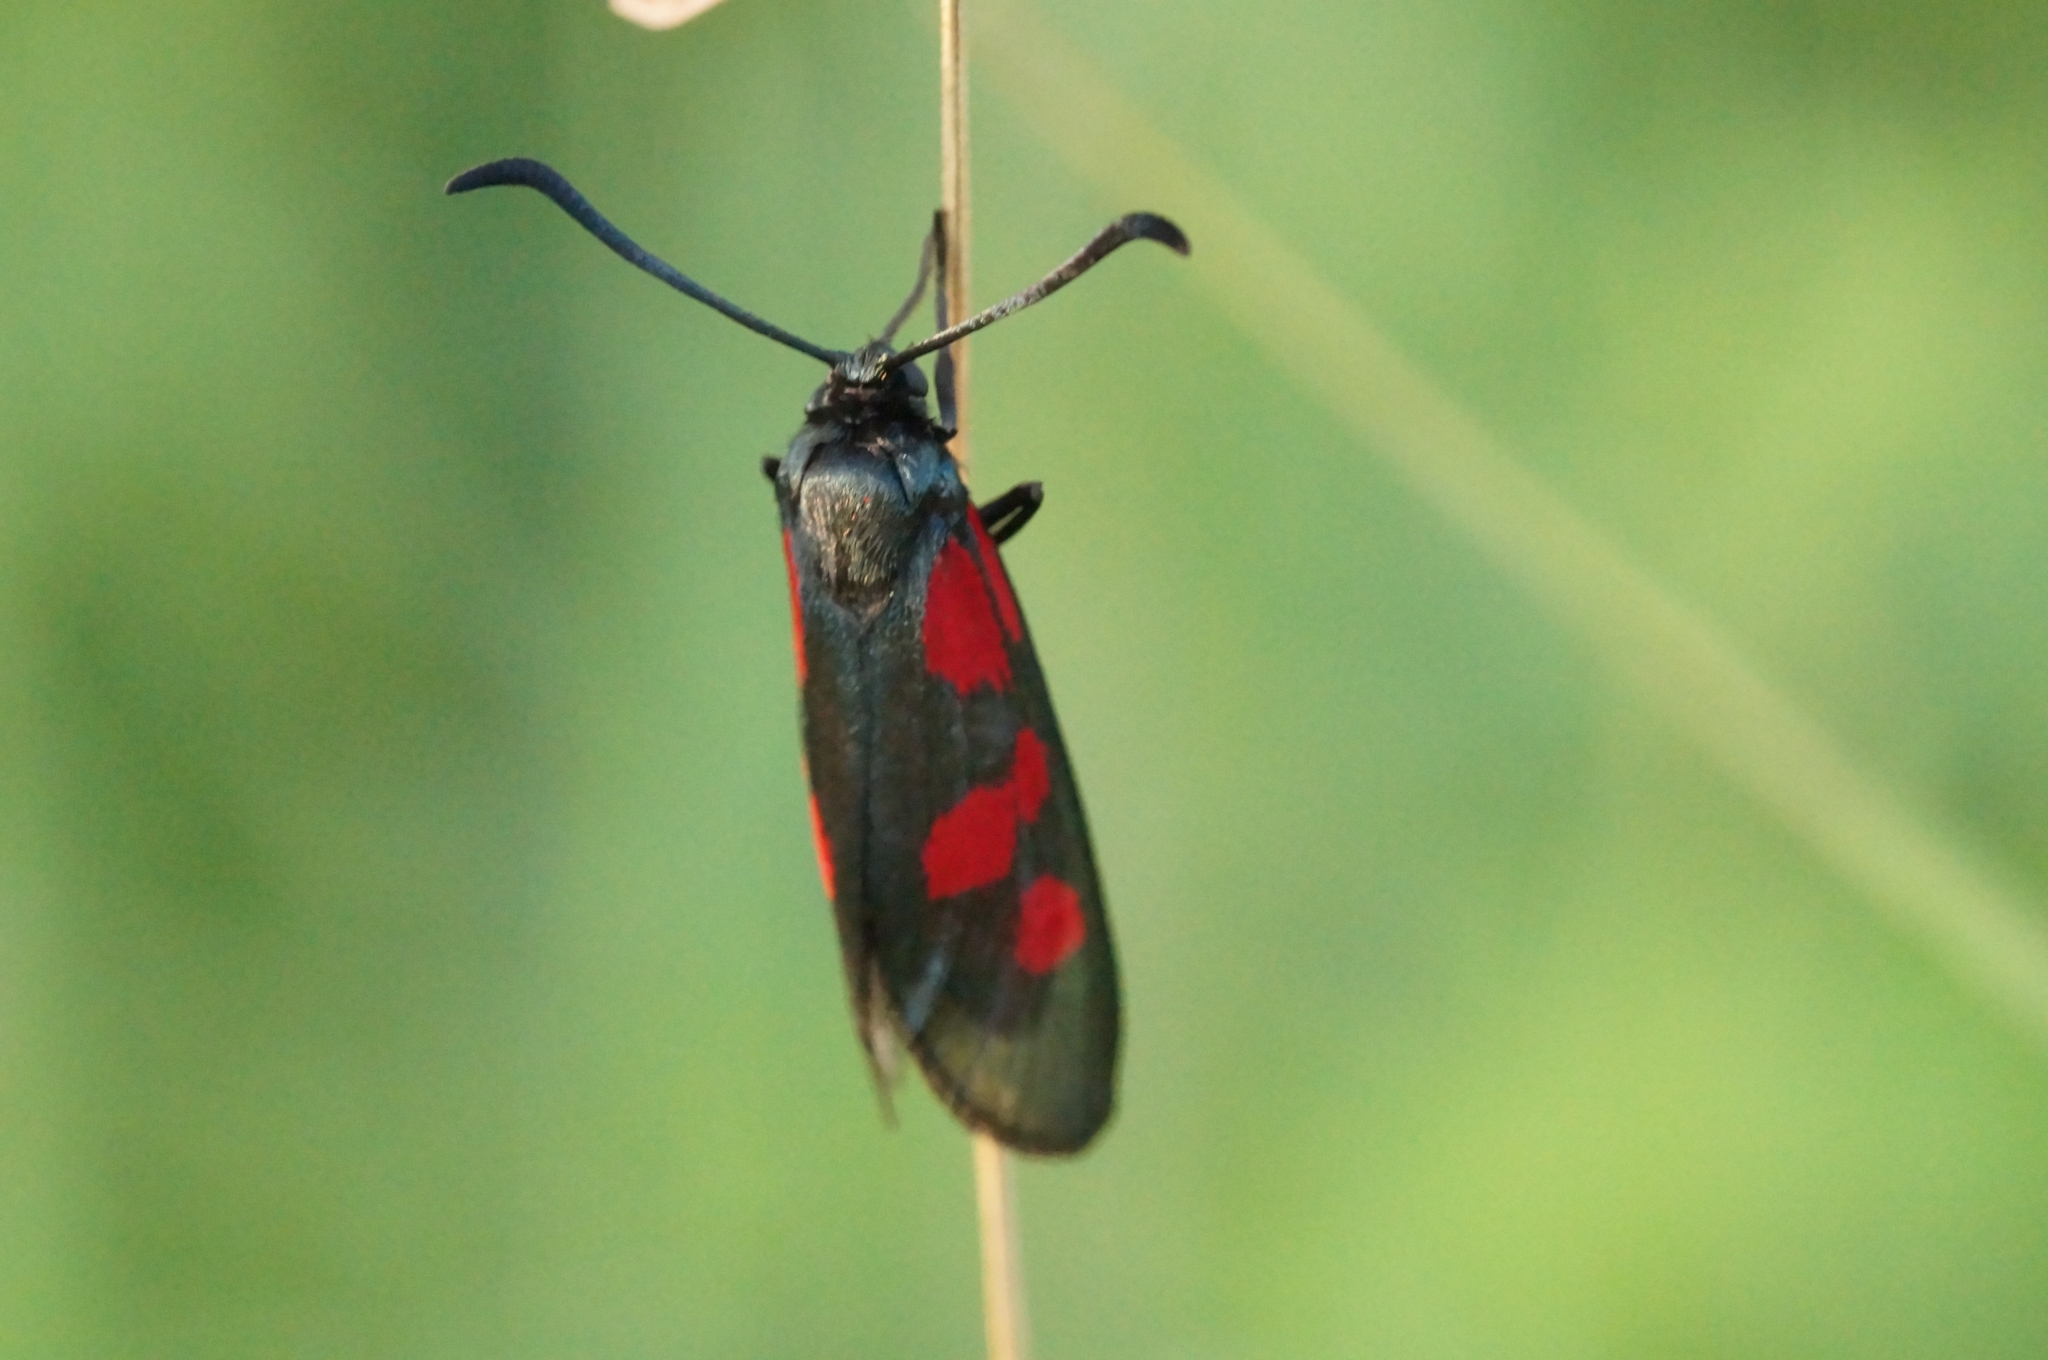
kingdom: Animalia
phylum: Arthropoda
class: Insecta
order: Lepidoptera
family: Zygaenidae
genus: Zygaena
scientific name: Zygaena viciae
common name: New forest burnet
